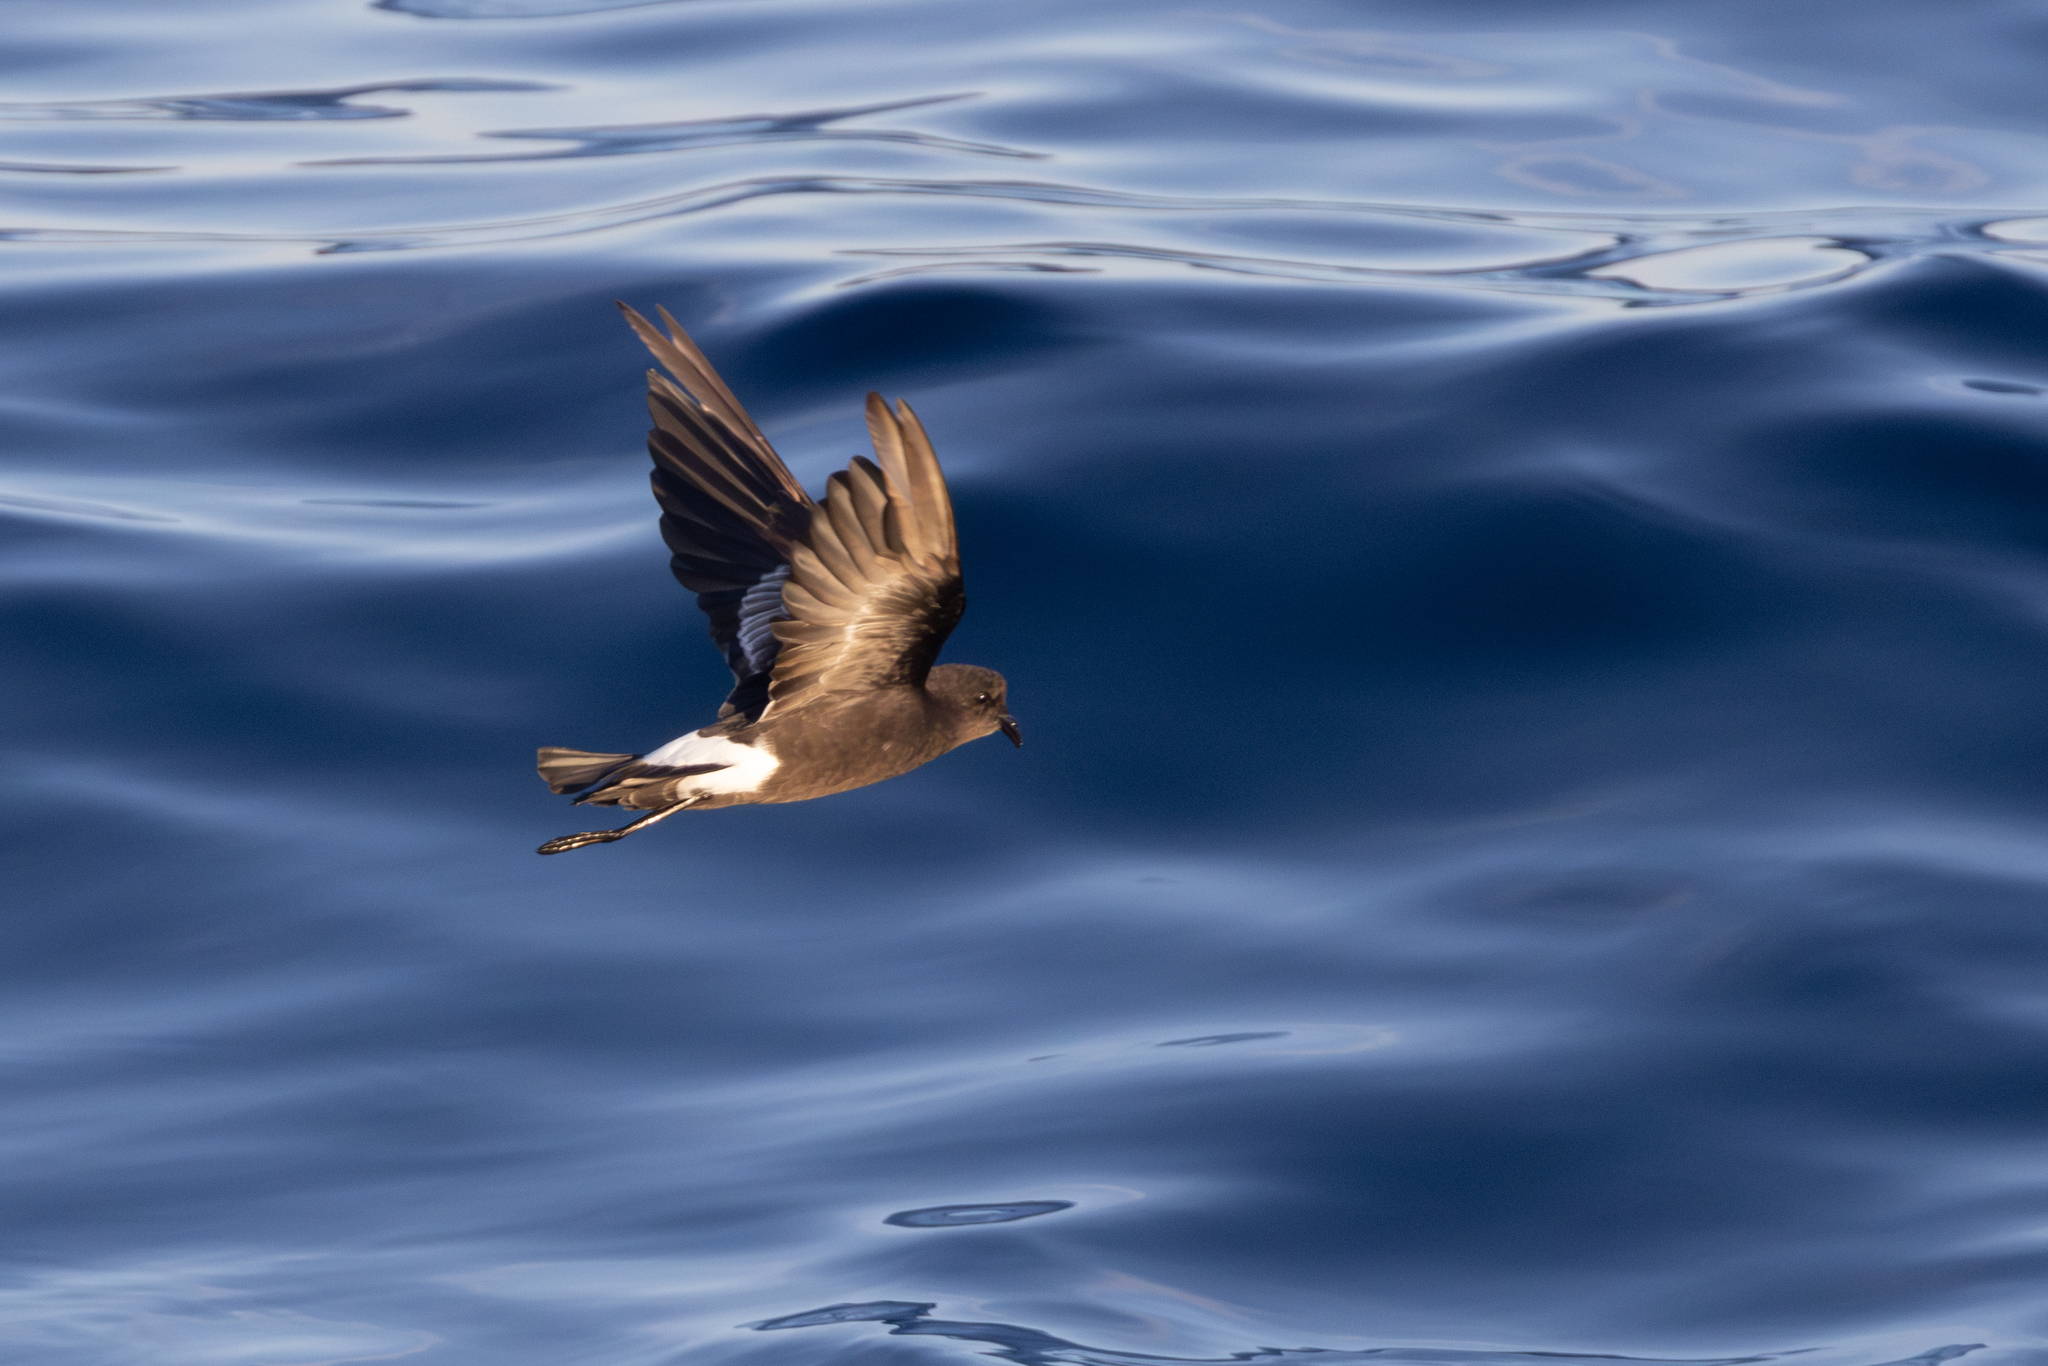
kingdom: Animalia
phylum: Chordata
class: Aves
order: Procellariiformes
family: Hydrobatidae
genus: Oceanites
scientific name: Oceanites oceanicus
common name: Wilson's storm petrel
